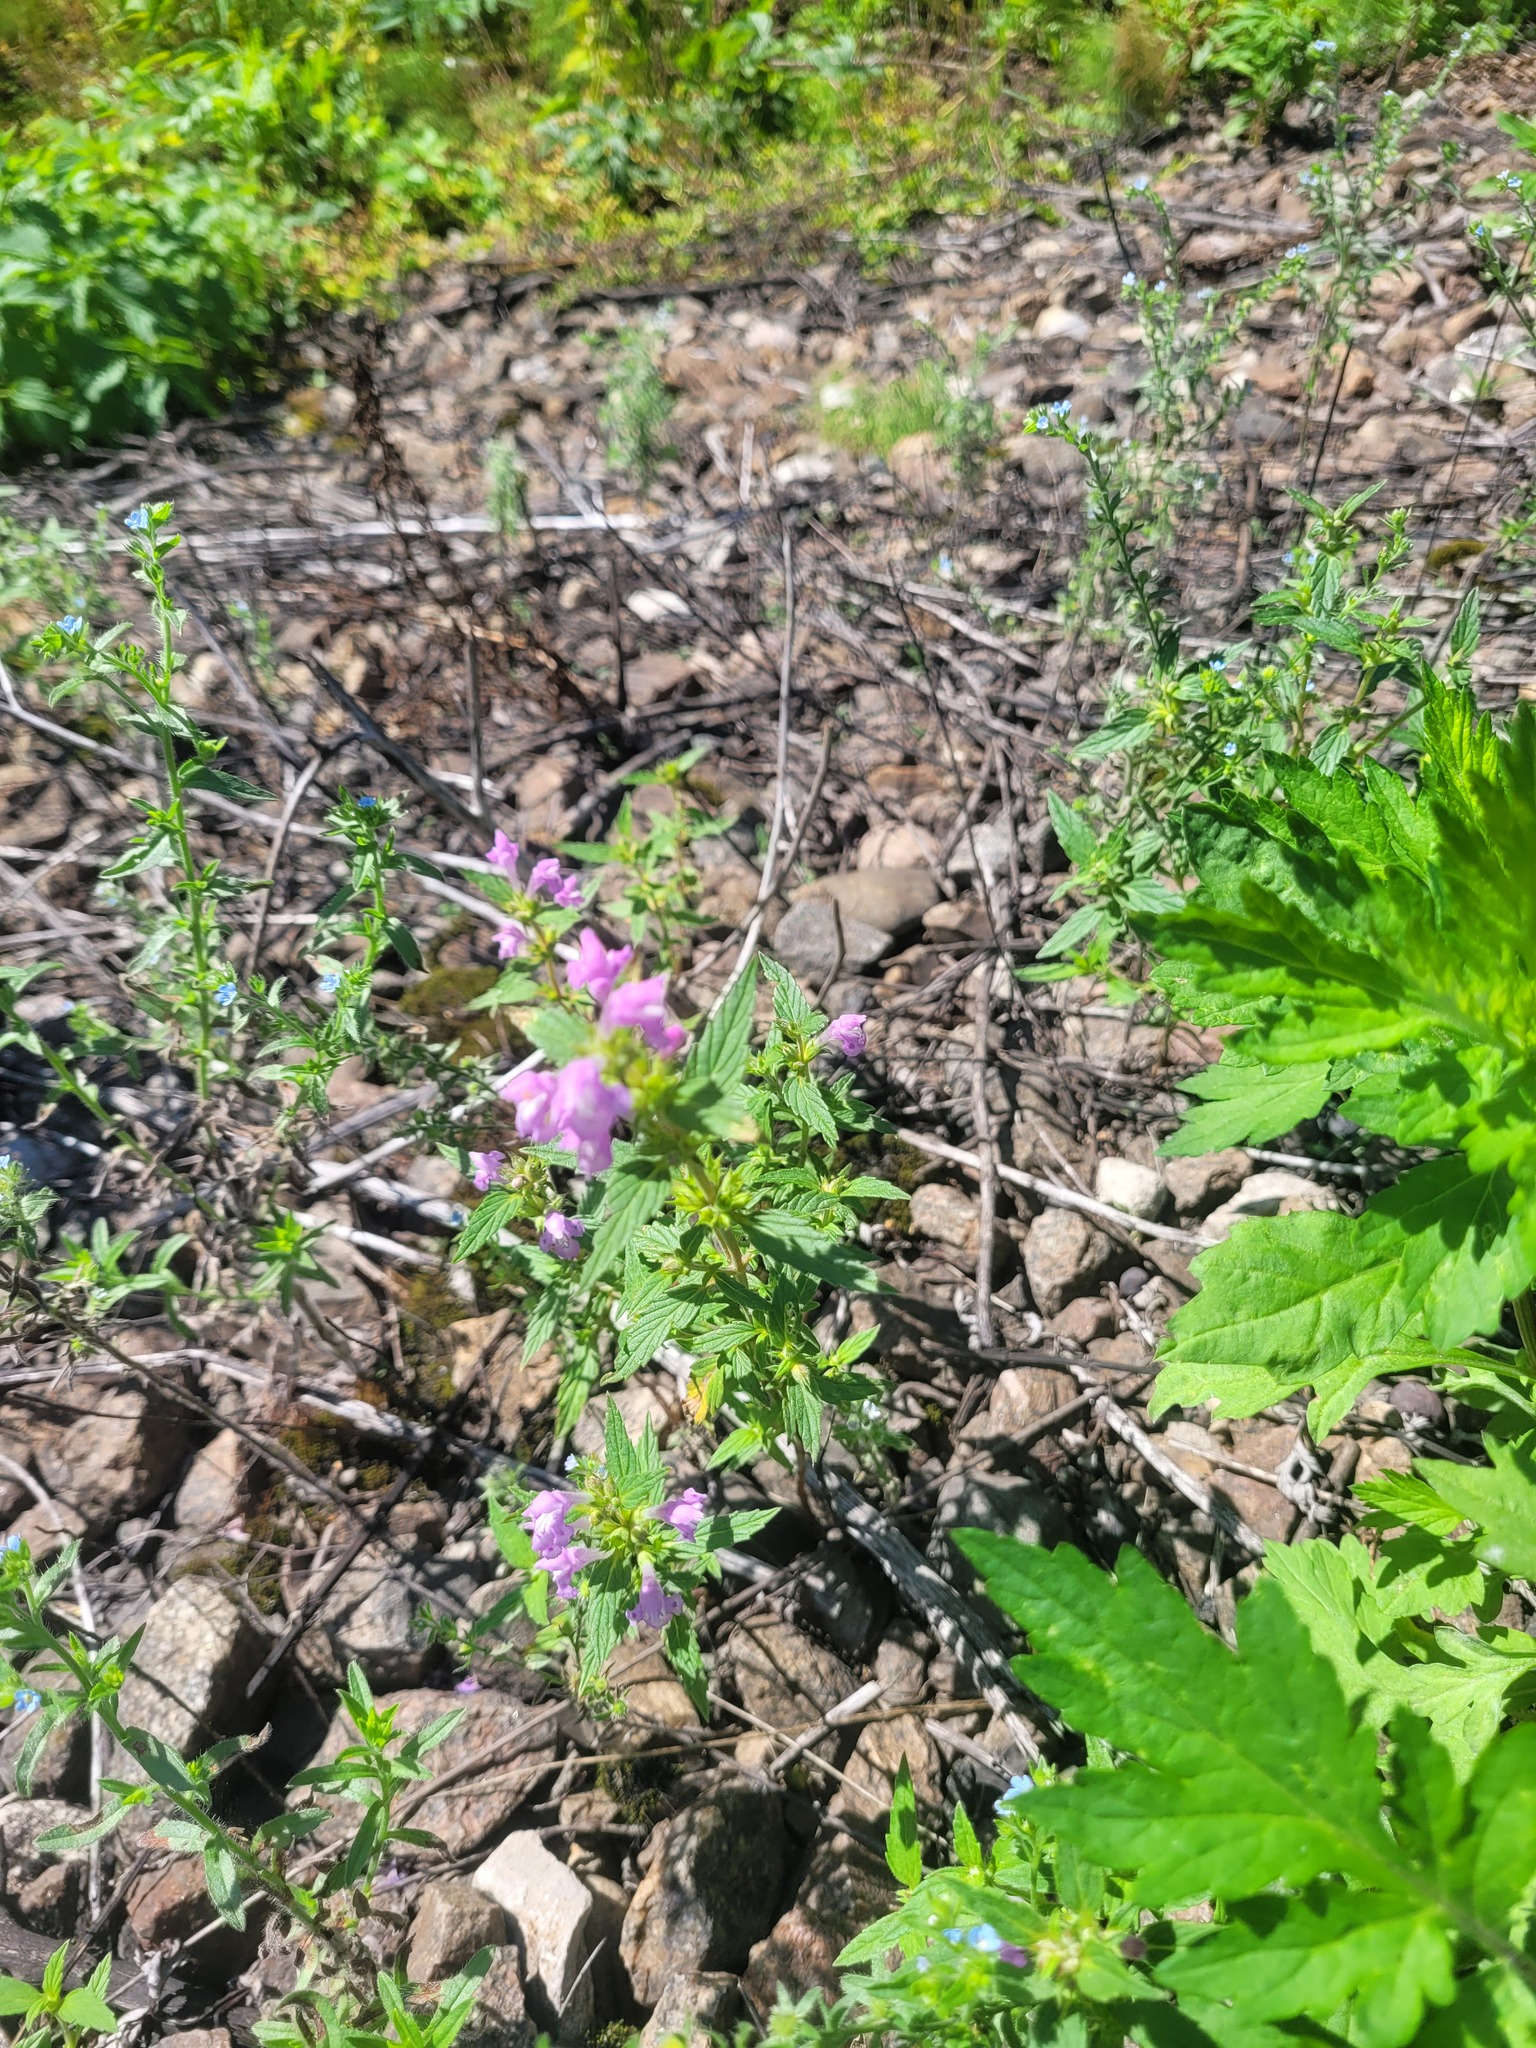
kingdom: Plantae
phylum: Tracheophyta
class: Magnoliopsida
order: Lamiales
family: Lamiaceae
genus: Galeopsis
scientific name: Galeopsis ladanum
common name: Broad-leaved hemp-nettle
